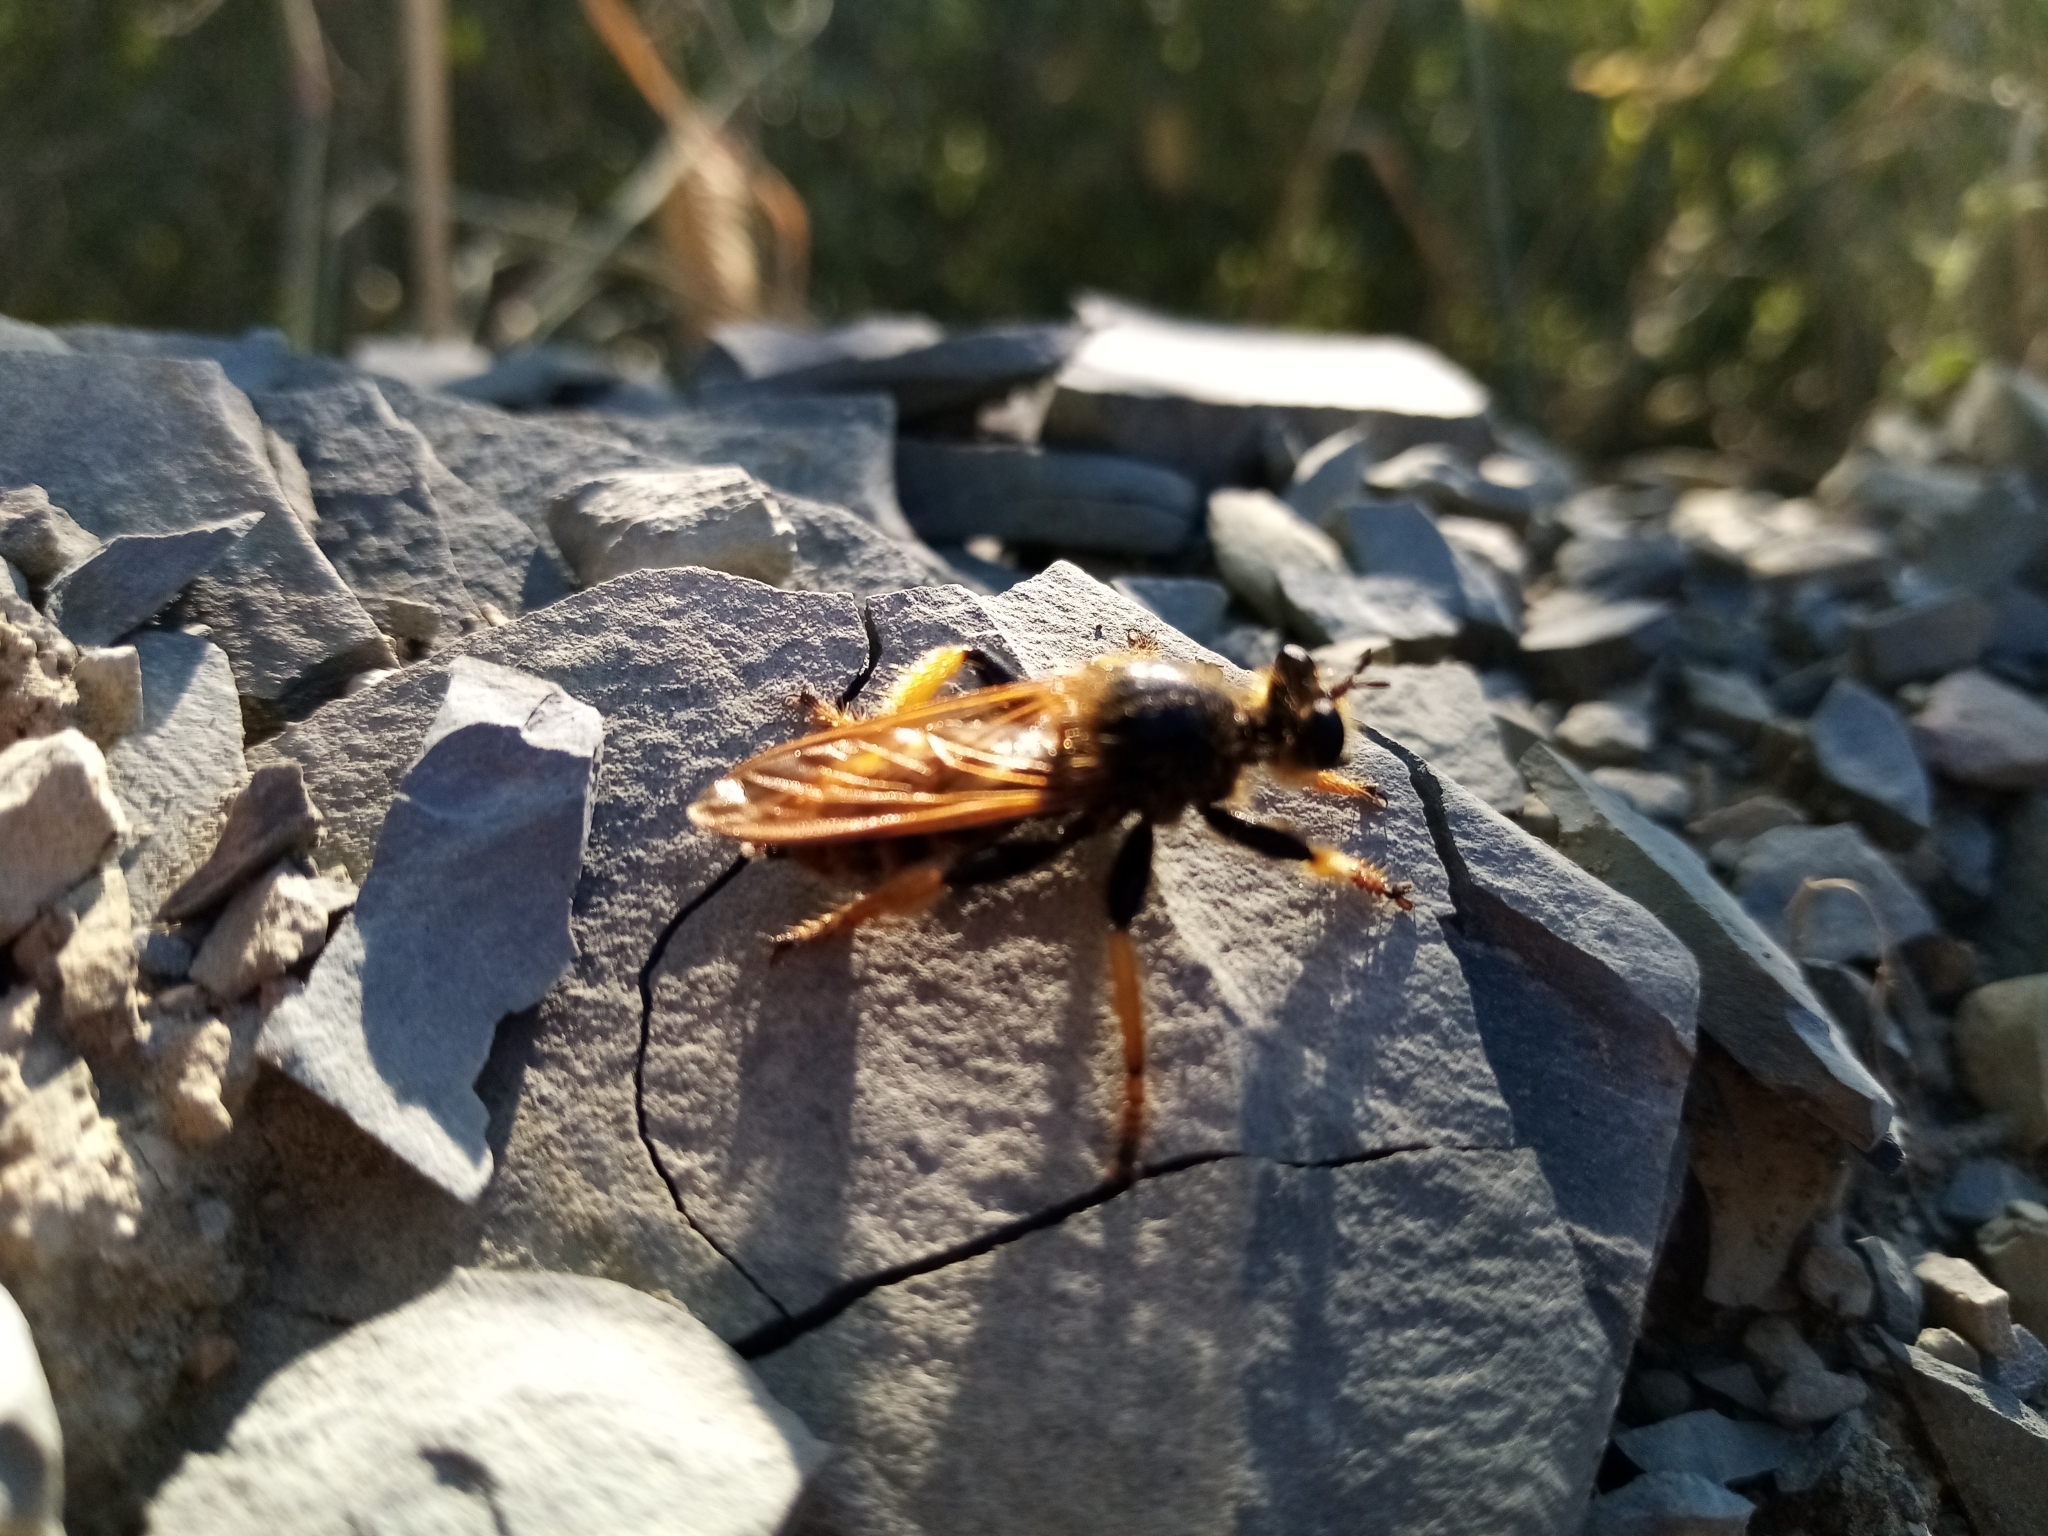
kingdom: Animalia
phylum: Arthropoda
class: Insecta
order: Diptera
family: Asilidae
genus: Pogonosoma
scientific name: Pogonosoma maroccanum
